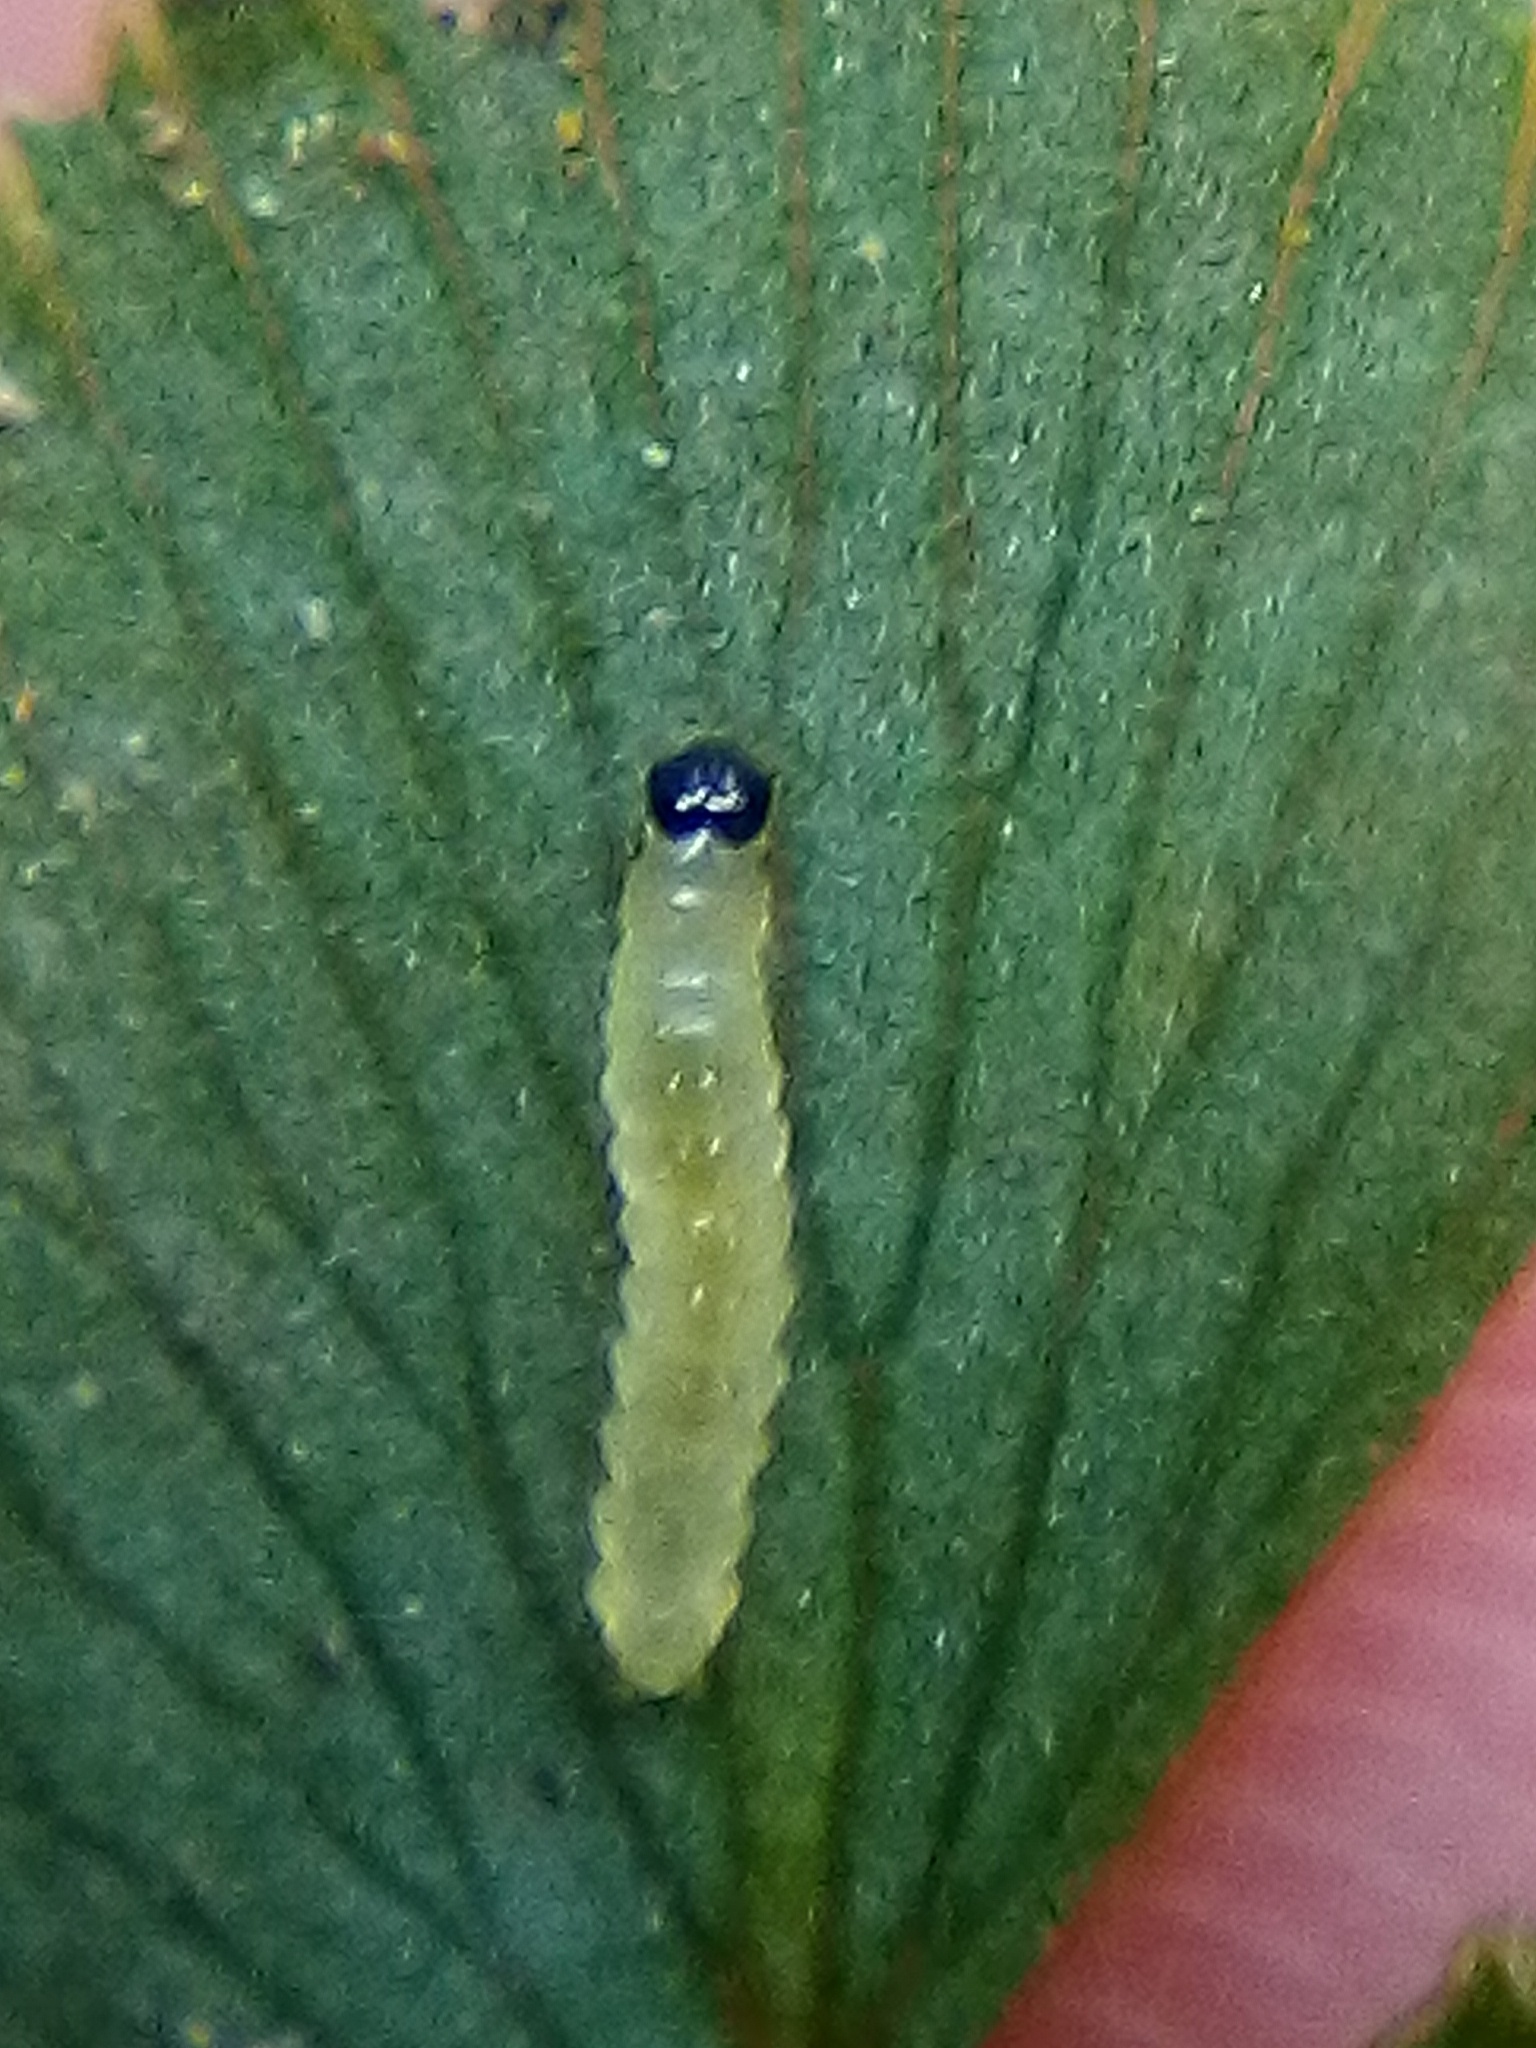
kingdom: Animalia
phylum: Arthropoda
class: Insecta
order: Lepidoptera
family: Pyralidae
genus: Musotima
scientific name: Musotima aduncalis
